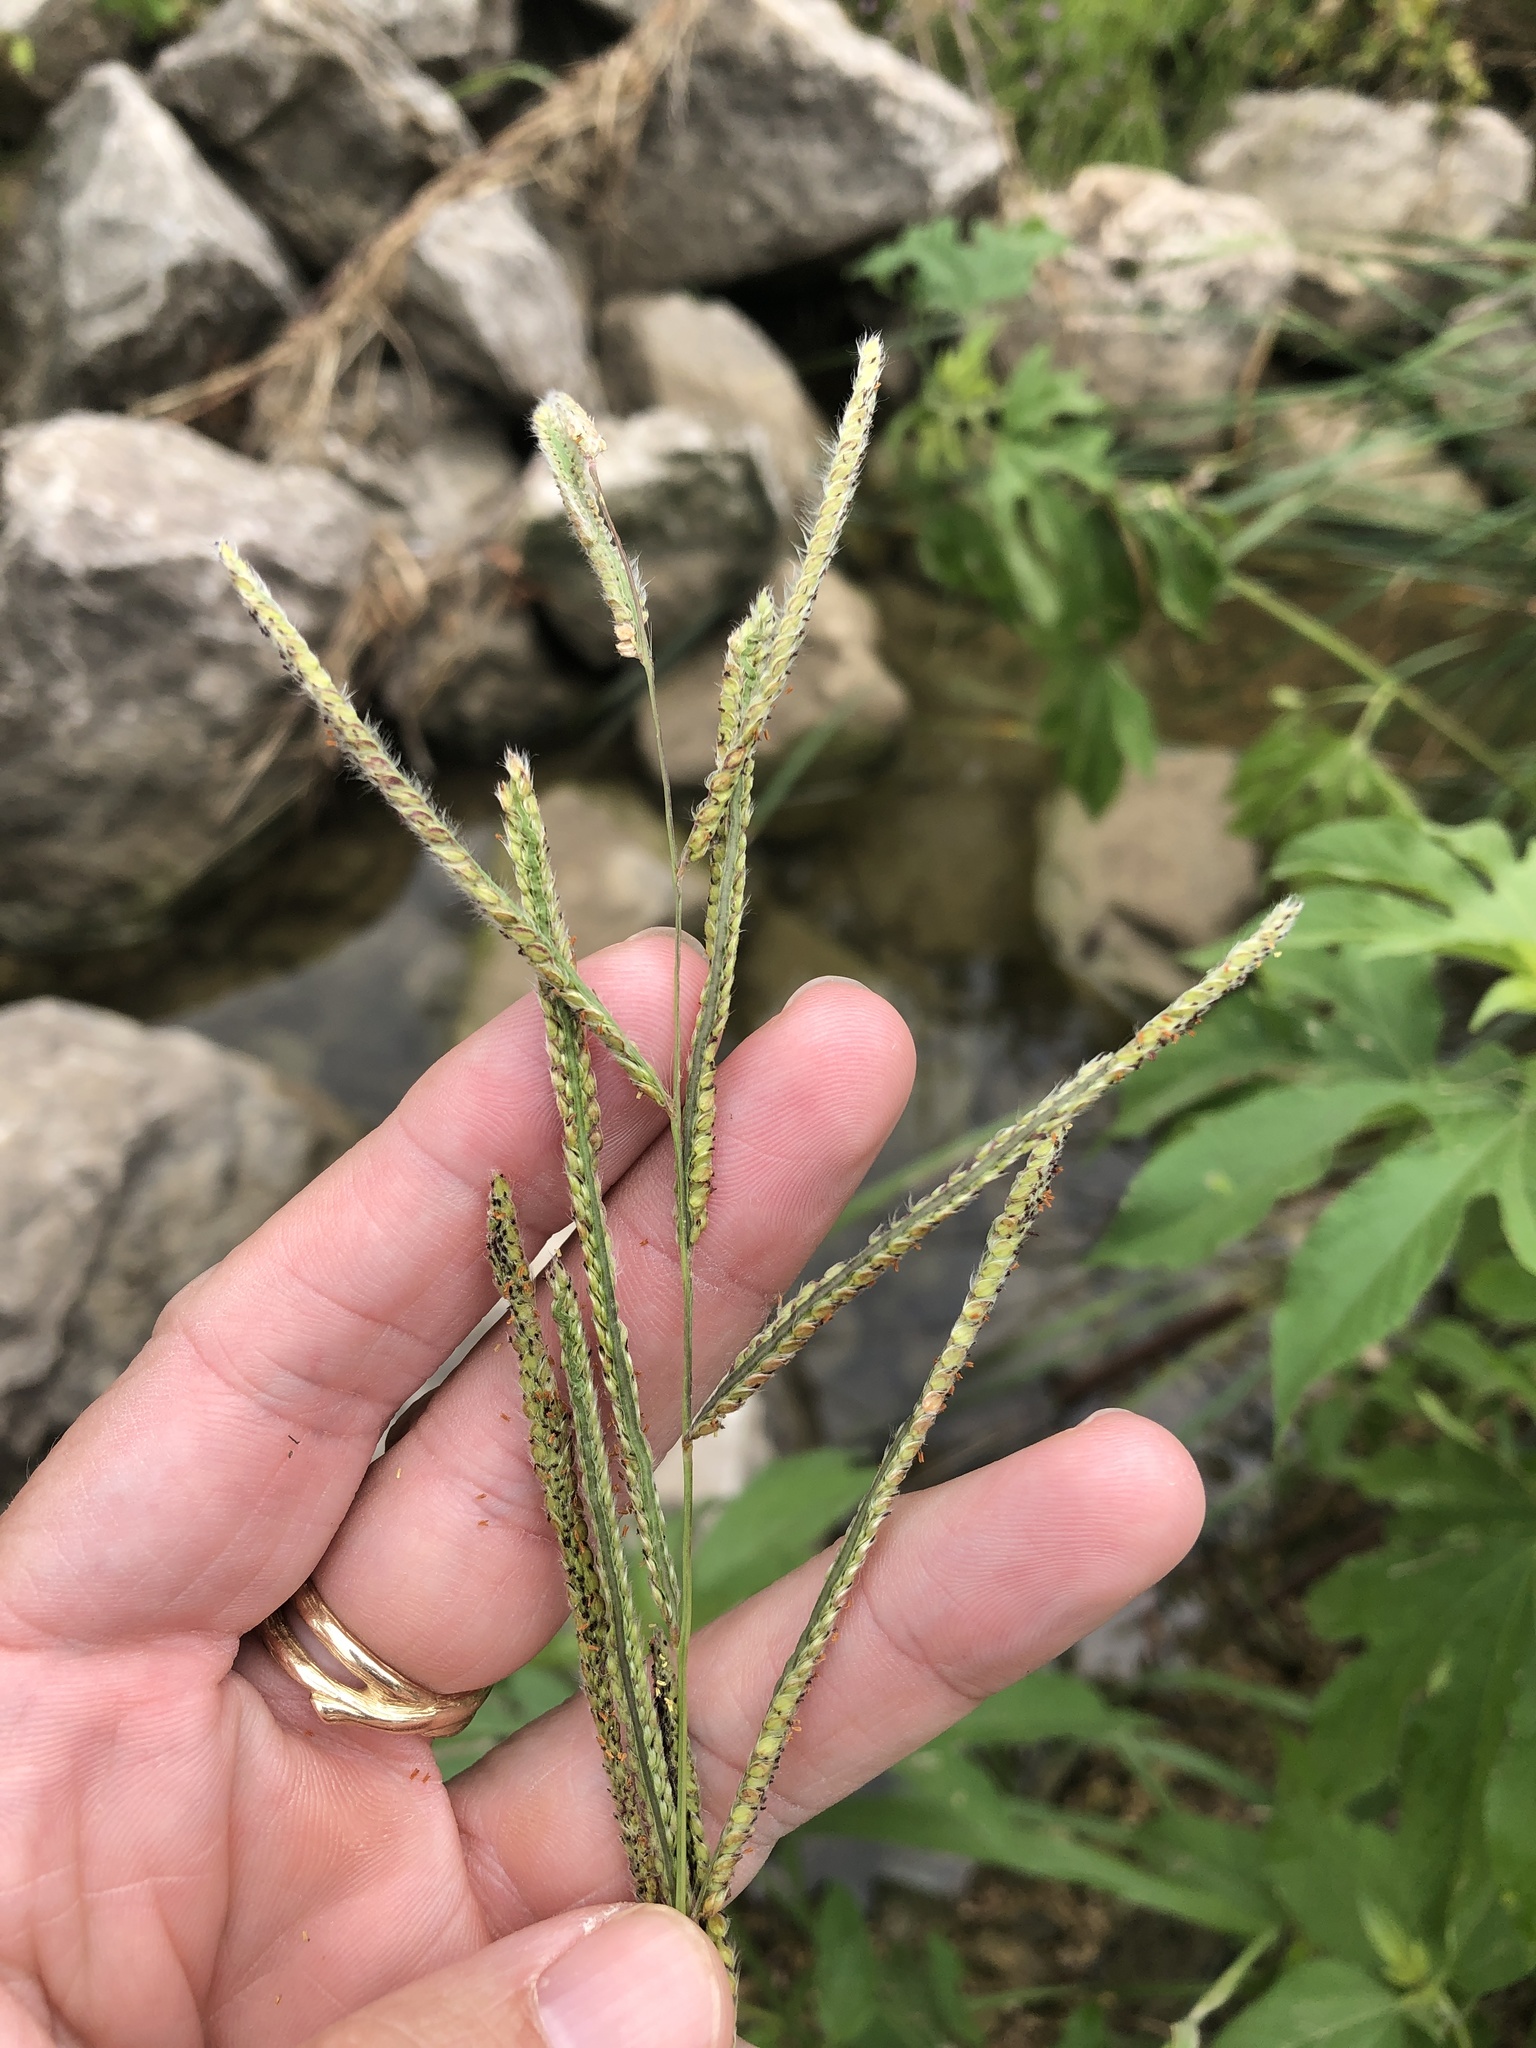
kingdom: Plantae
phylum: Tracheophyta
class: Liliopsida
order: Poales
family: Poaceae
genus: Paspalum
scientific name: Paspalum urvillei
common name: Vasey's grass
